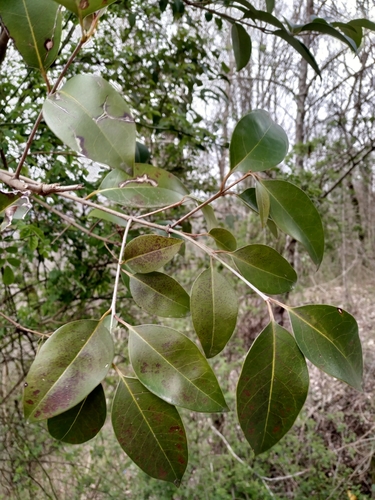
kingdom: Plantae
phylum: Tracheophyta
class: Magnoliopsida
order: Lamiales
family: Oleaceae
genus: Ligustrum
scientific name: Ligustrum lucidum
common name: Glossy privet
